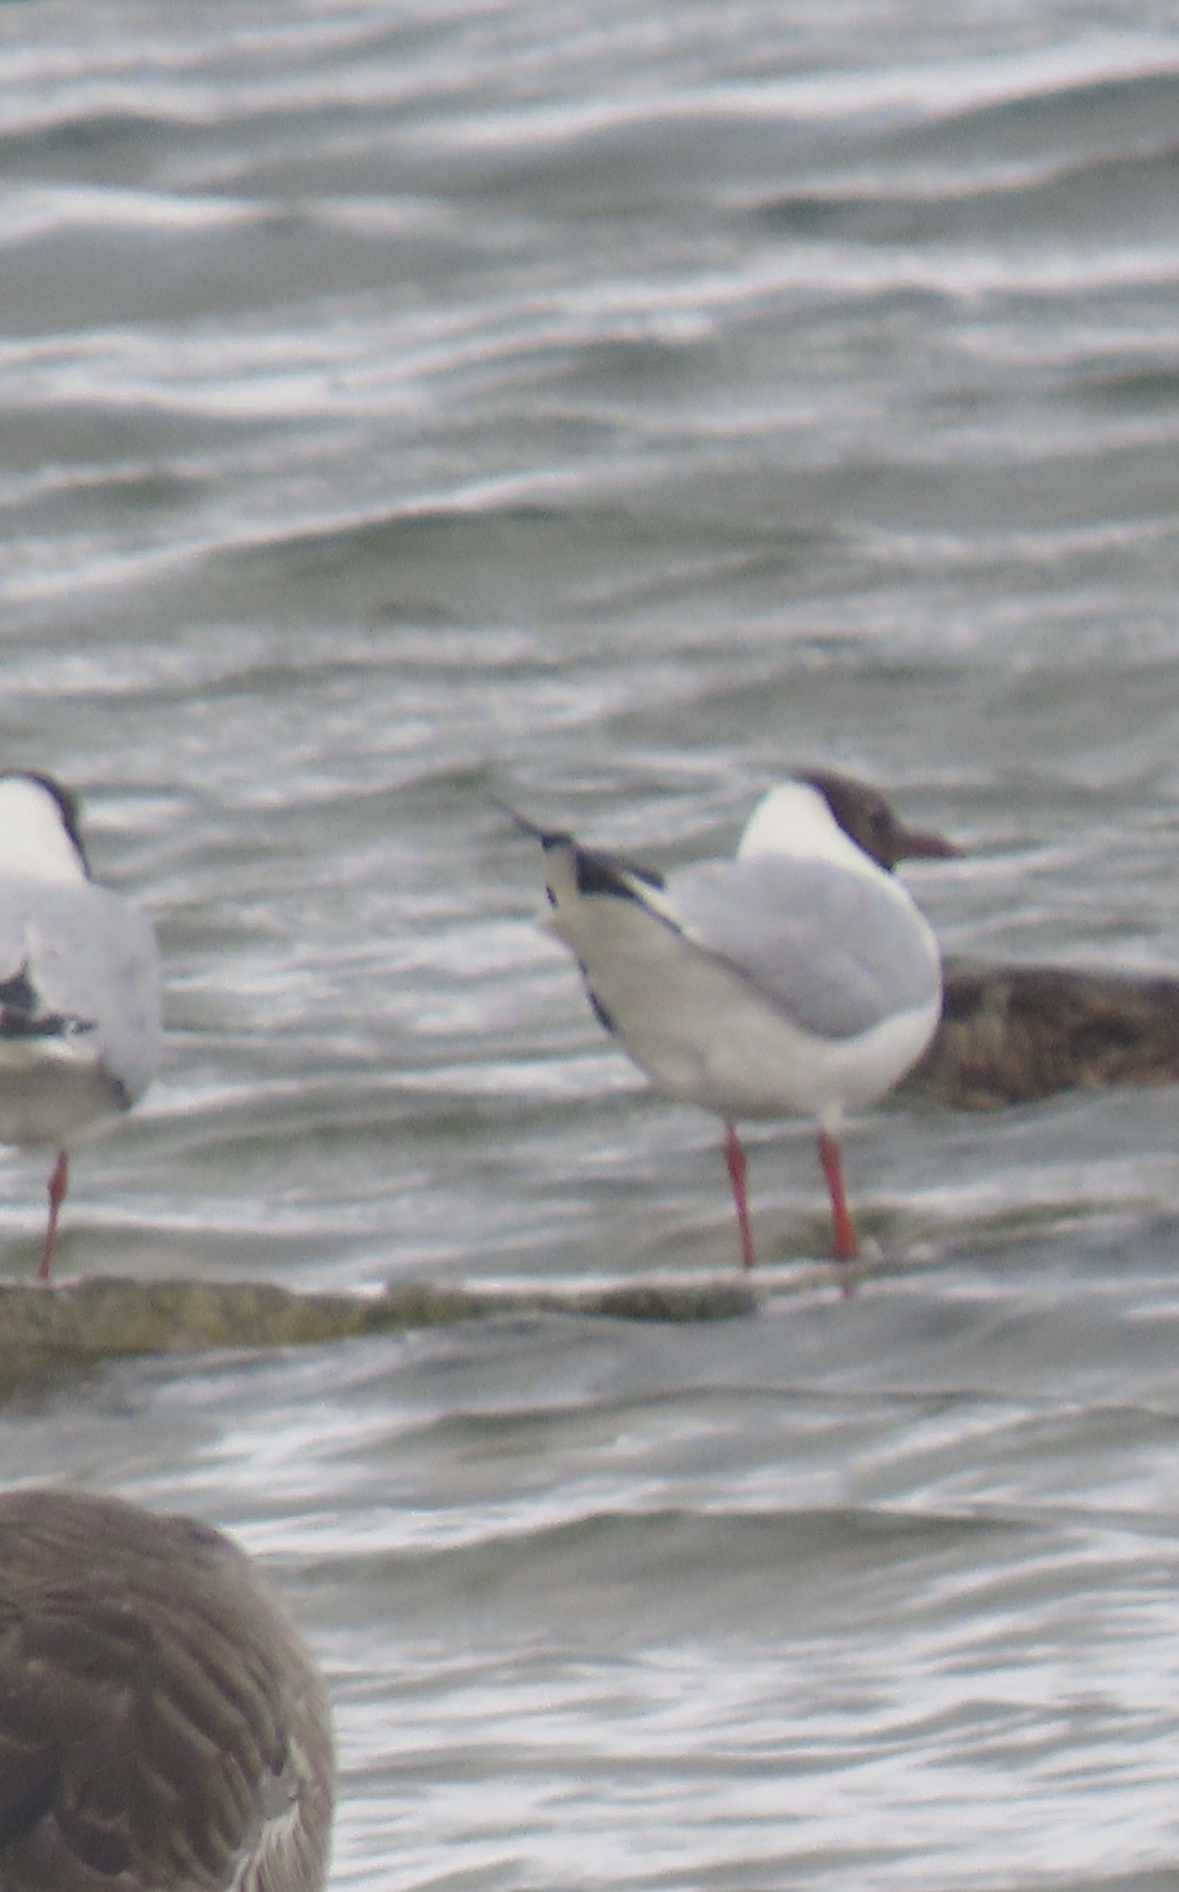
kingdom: Animalia
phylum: Chordata
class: Aves
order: Charadriiformes
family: Laridae
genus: Chroicocephalus
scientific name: Chroicocephalus ridibundus
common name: Black-headed gull
